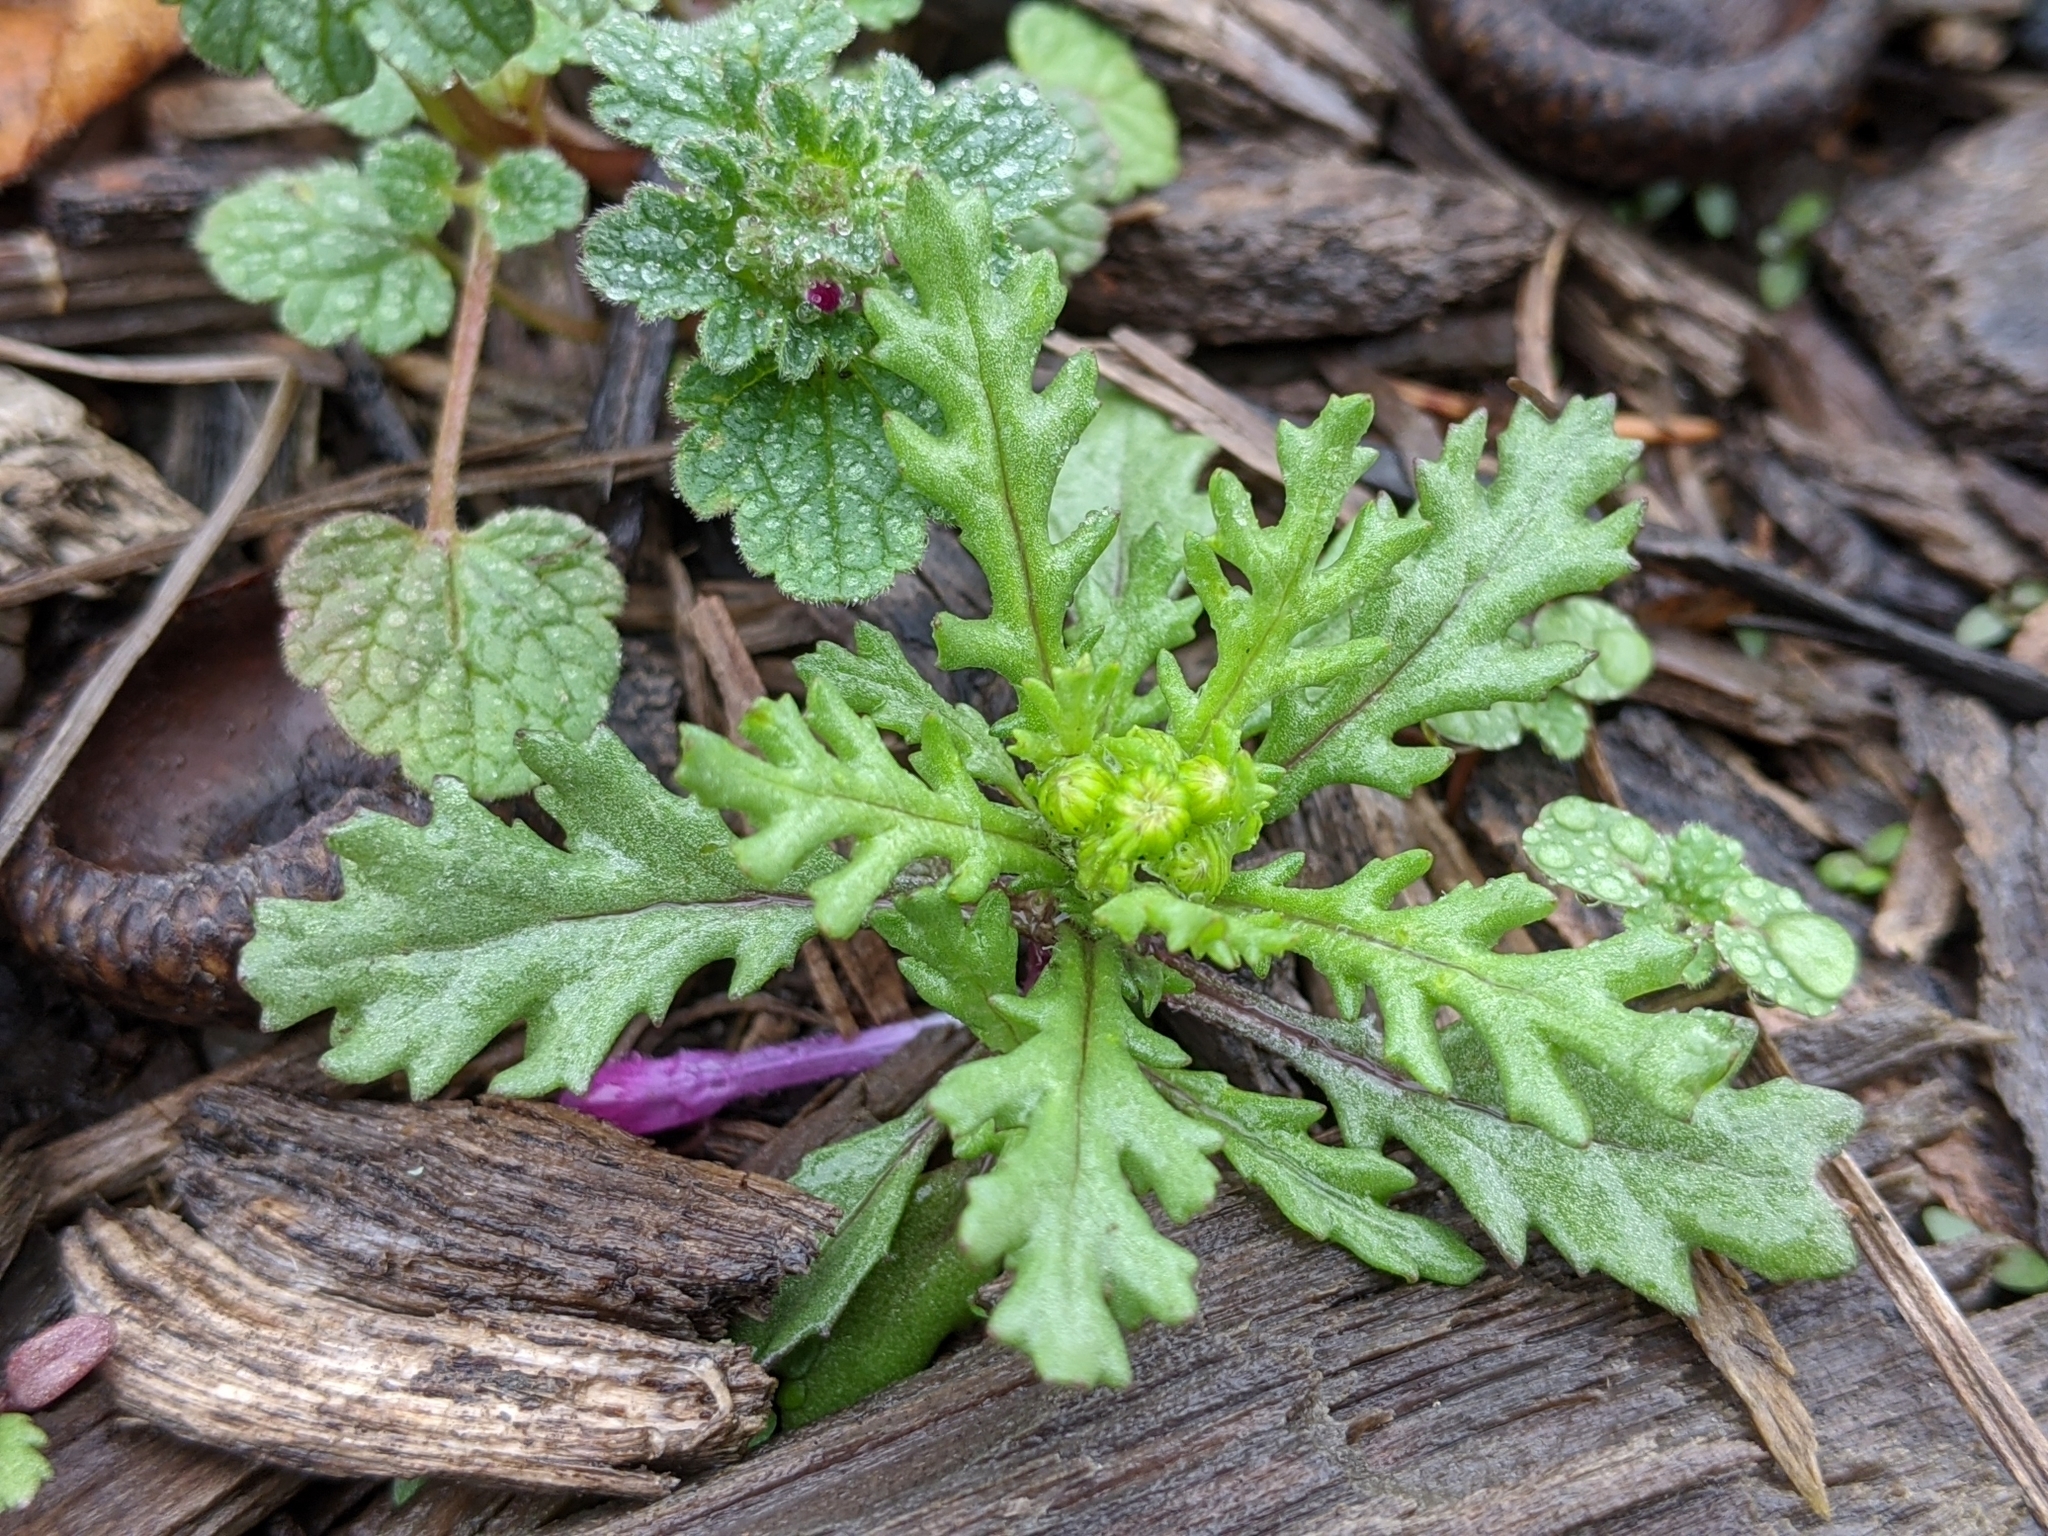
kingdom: Plantae
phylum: Tracheophyta
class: Magnoliopsida
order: Asterales
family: Asteraceae
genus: Senecio
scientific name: Senecio vulgaris
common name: Old-man-in-the-spring
